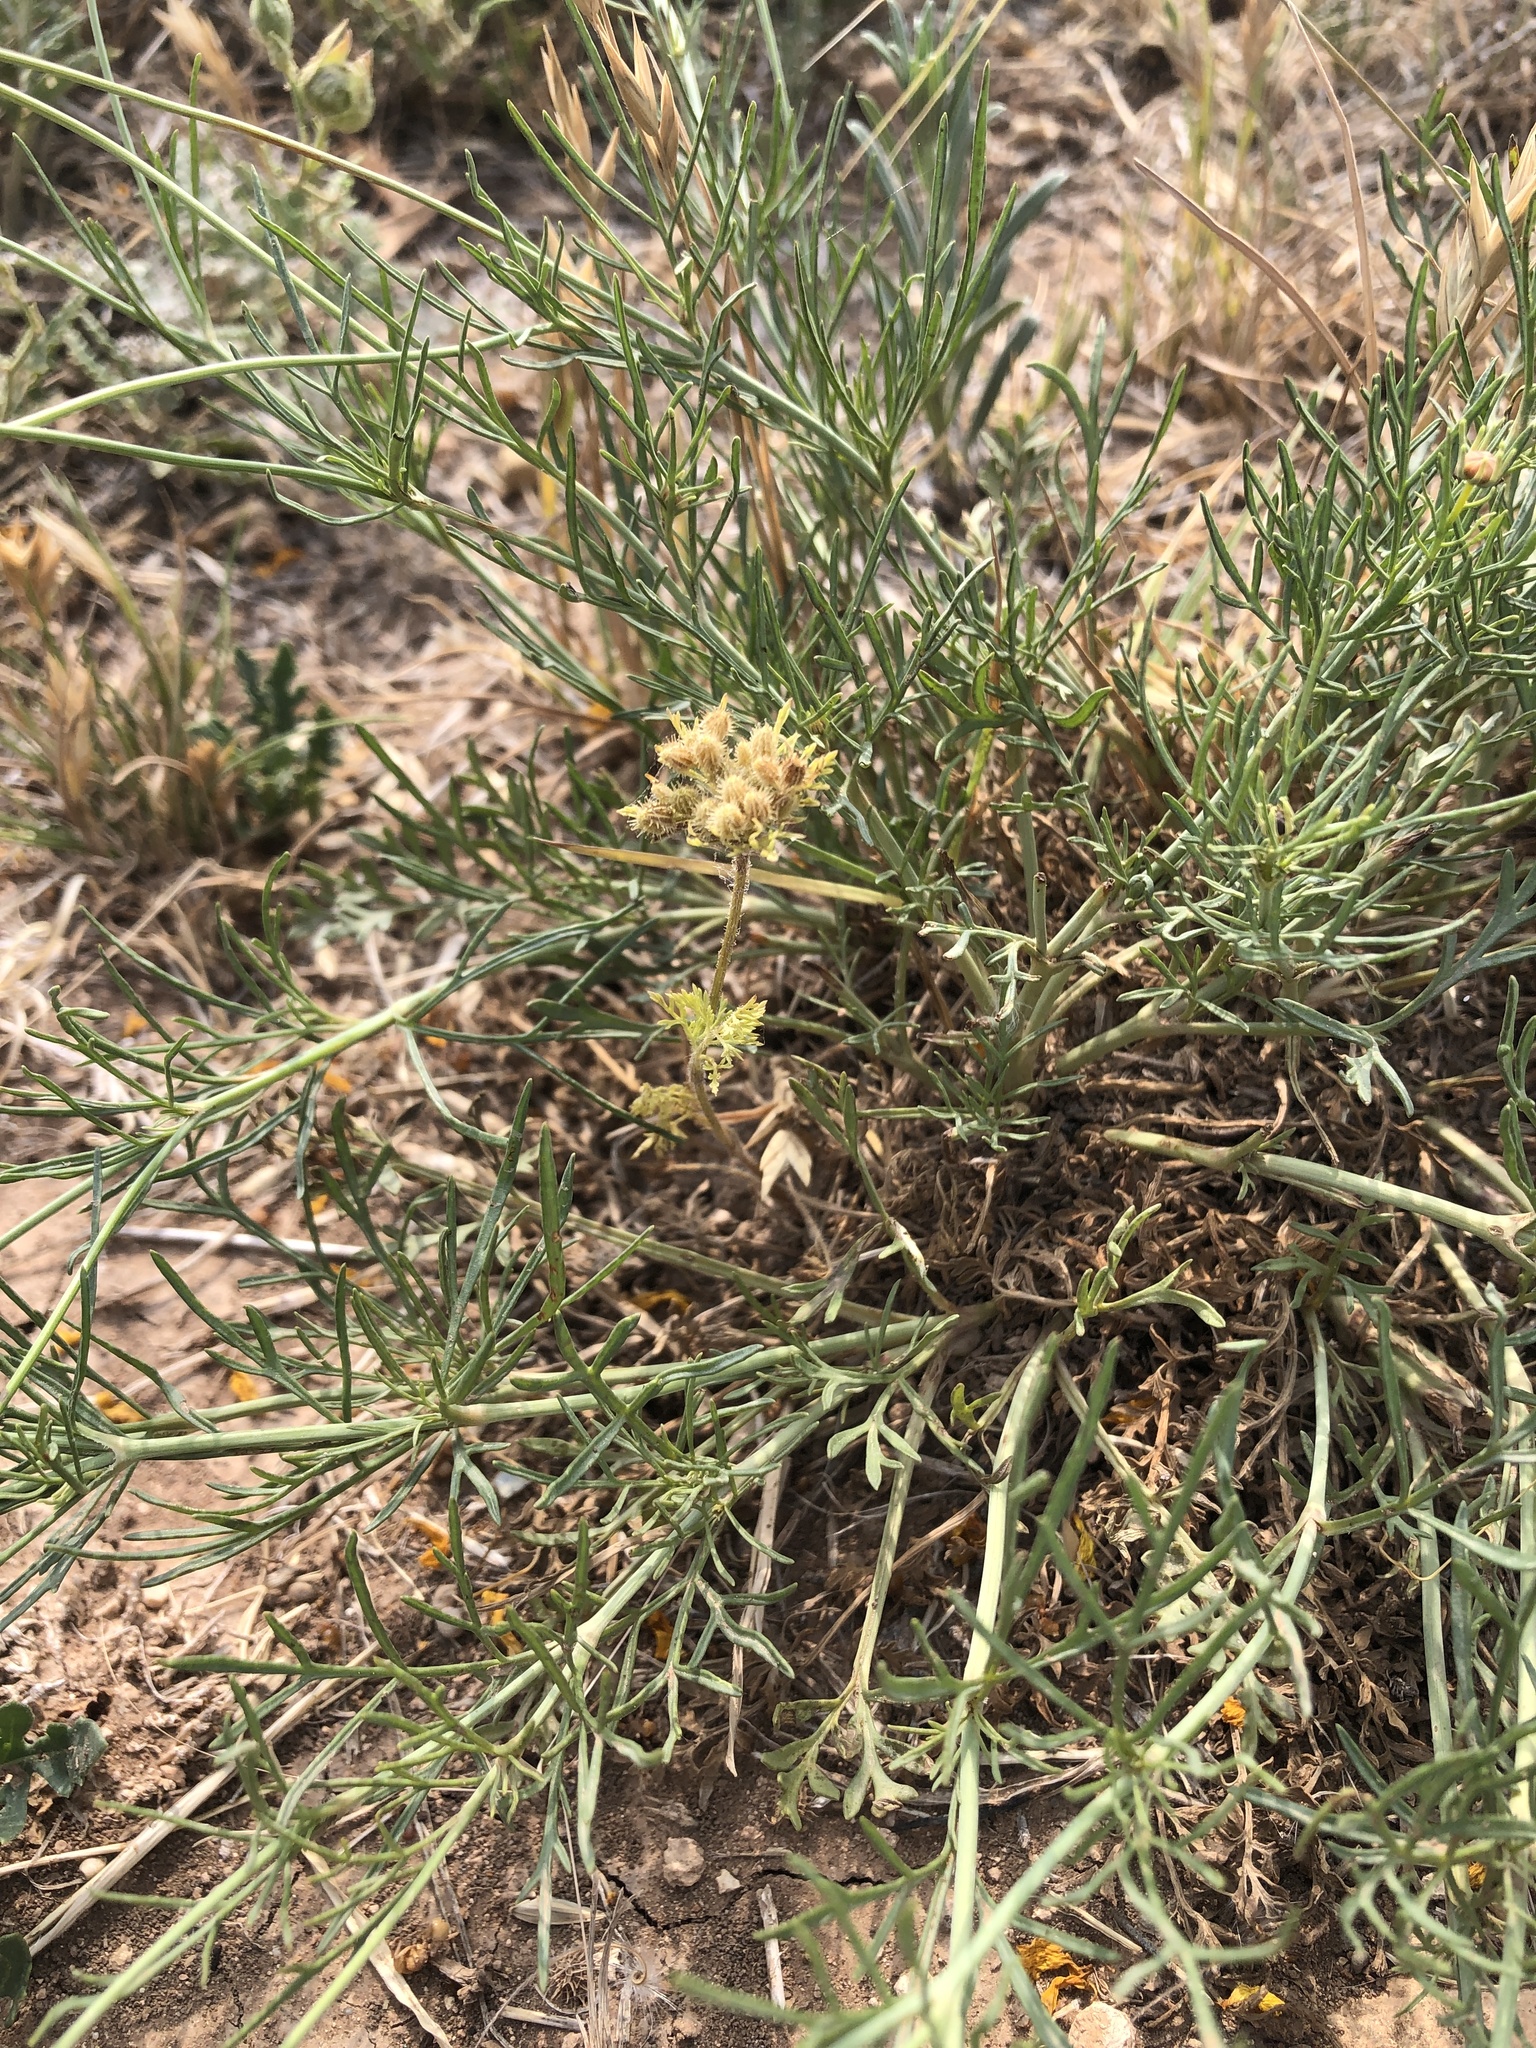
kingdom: Plantae
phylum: Tracheophyta
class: Magnoliopsida
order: Apiales
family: Apiaceae
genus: Daucus
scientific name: Daucus pusillus
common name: Southwest wild carrot
